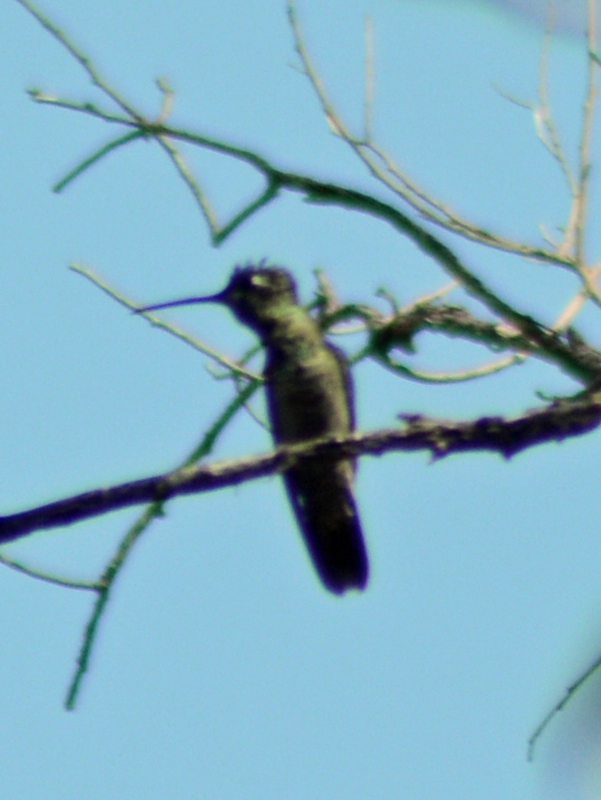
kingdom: Animalia
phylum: Chordata
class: Aves
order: Apodiformes
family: Trochilidae
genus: Eugenes
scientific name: Eugenes fulgens
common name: Magnificent hummingbird
